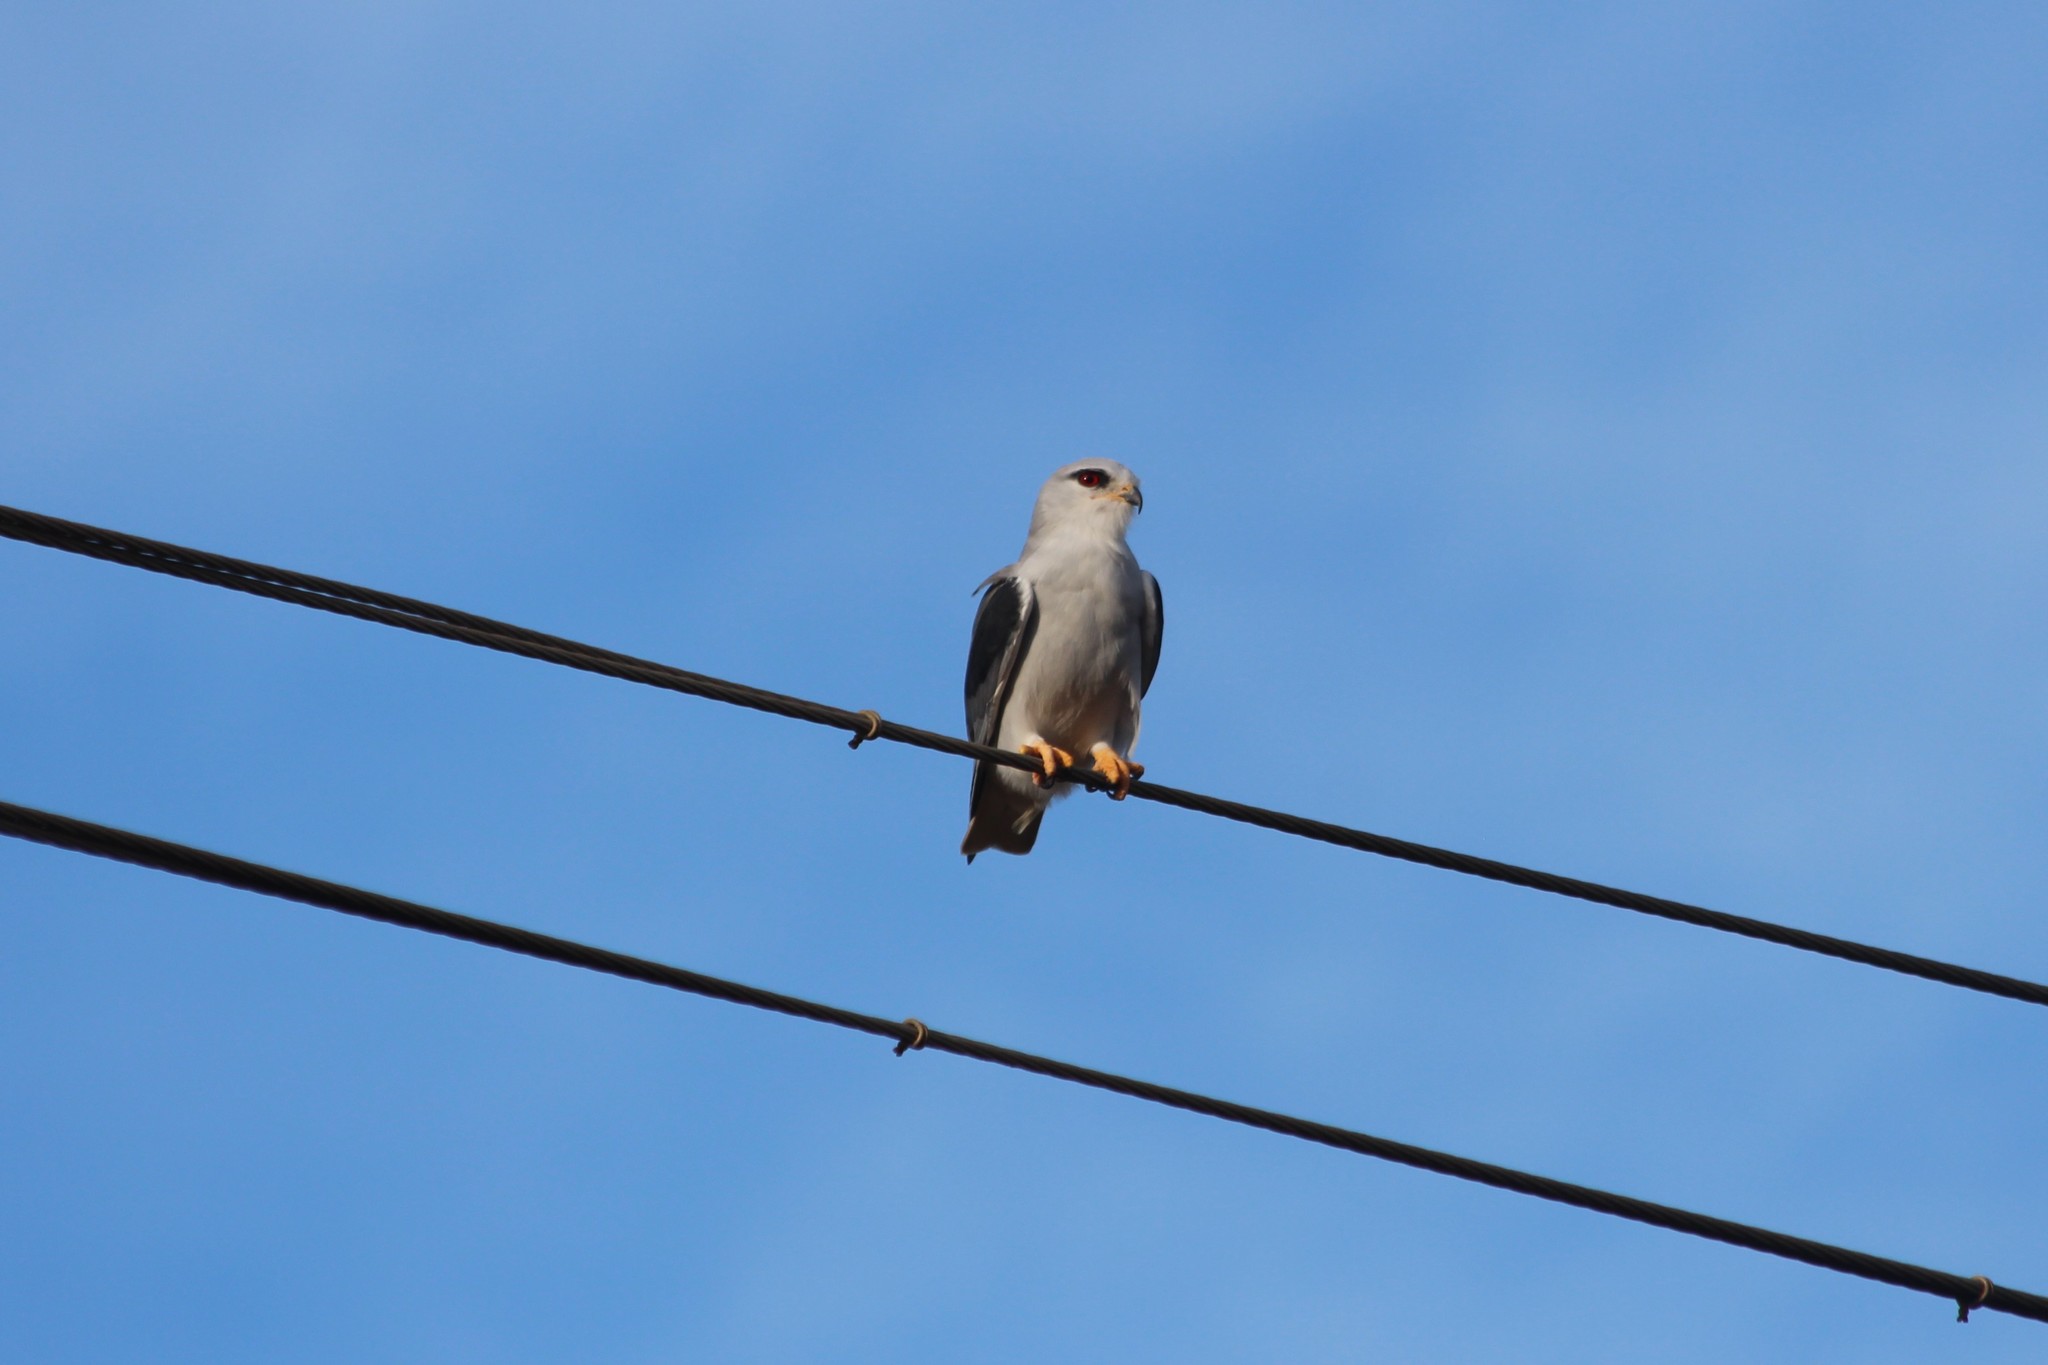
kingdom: Animalia
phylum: Chordata
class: Aves
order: Accipitriformes
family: Accipitridae
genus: Elanus
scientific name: Elanus caeruleus
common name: Black-winged kite
